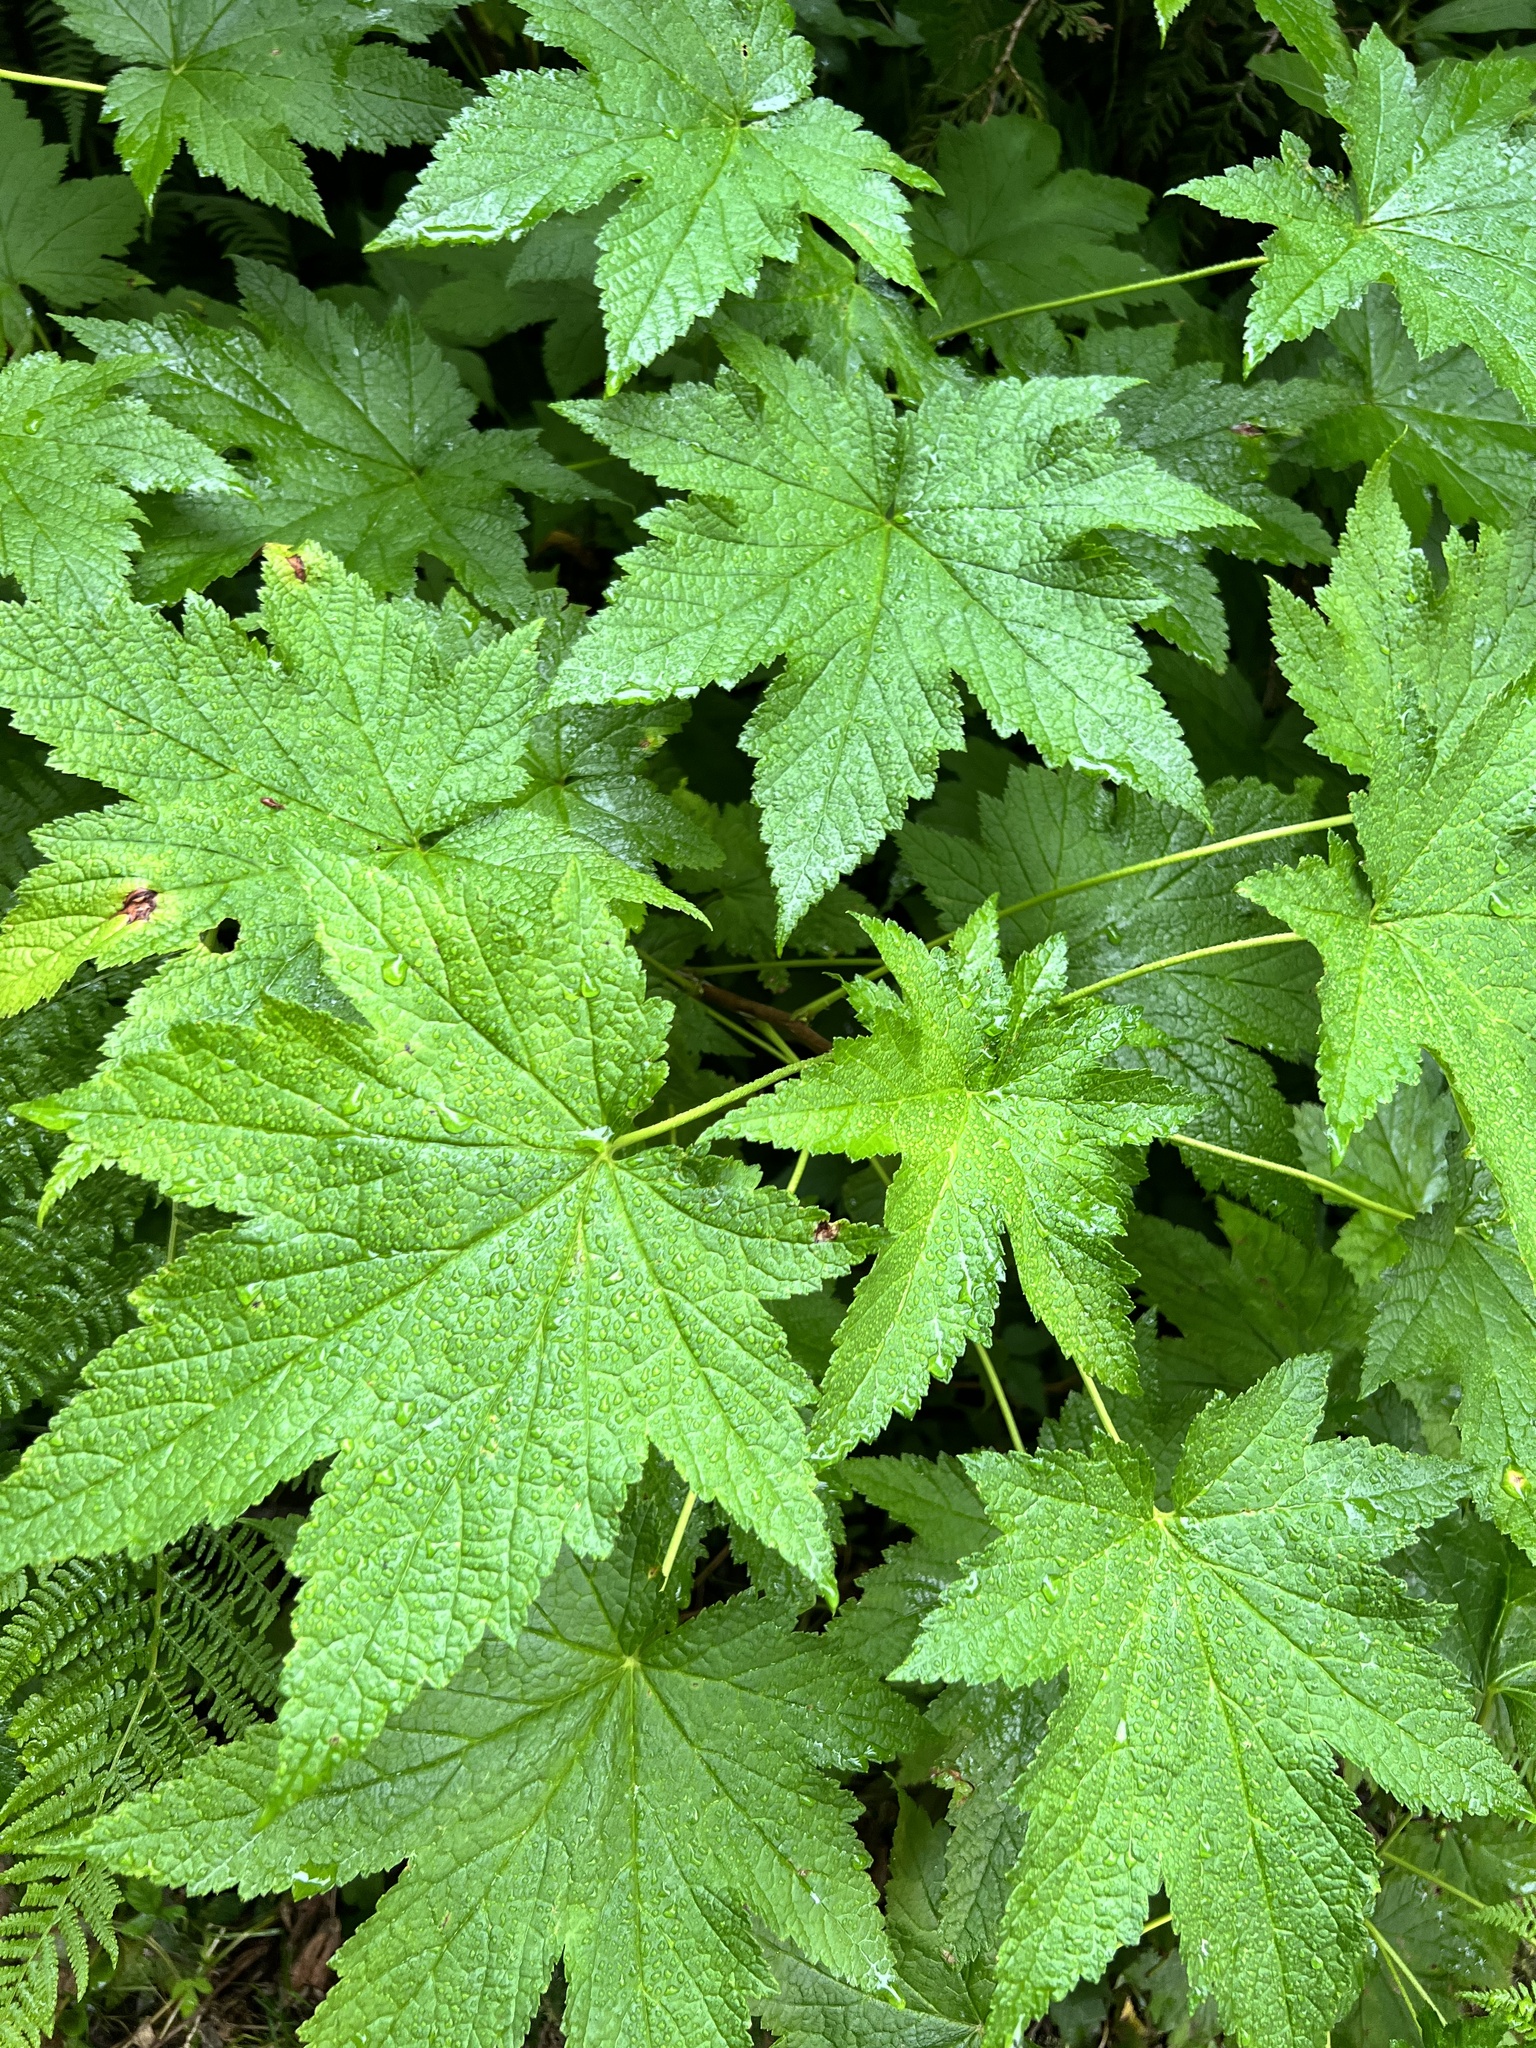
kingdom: Plantae
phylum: Tracheophyta
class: Magnoliopsida
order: Saxifragales
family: Grossulariaceae
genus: Ribes
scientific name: Ribes bracteosum
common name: California black currant
